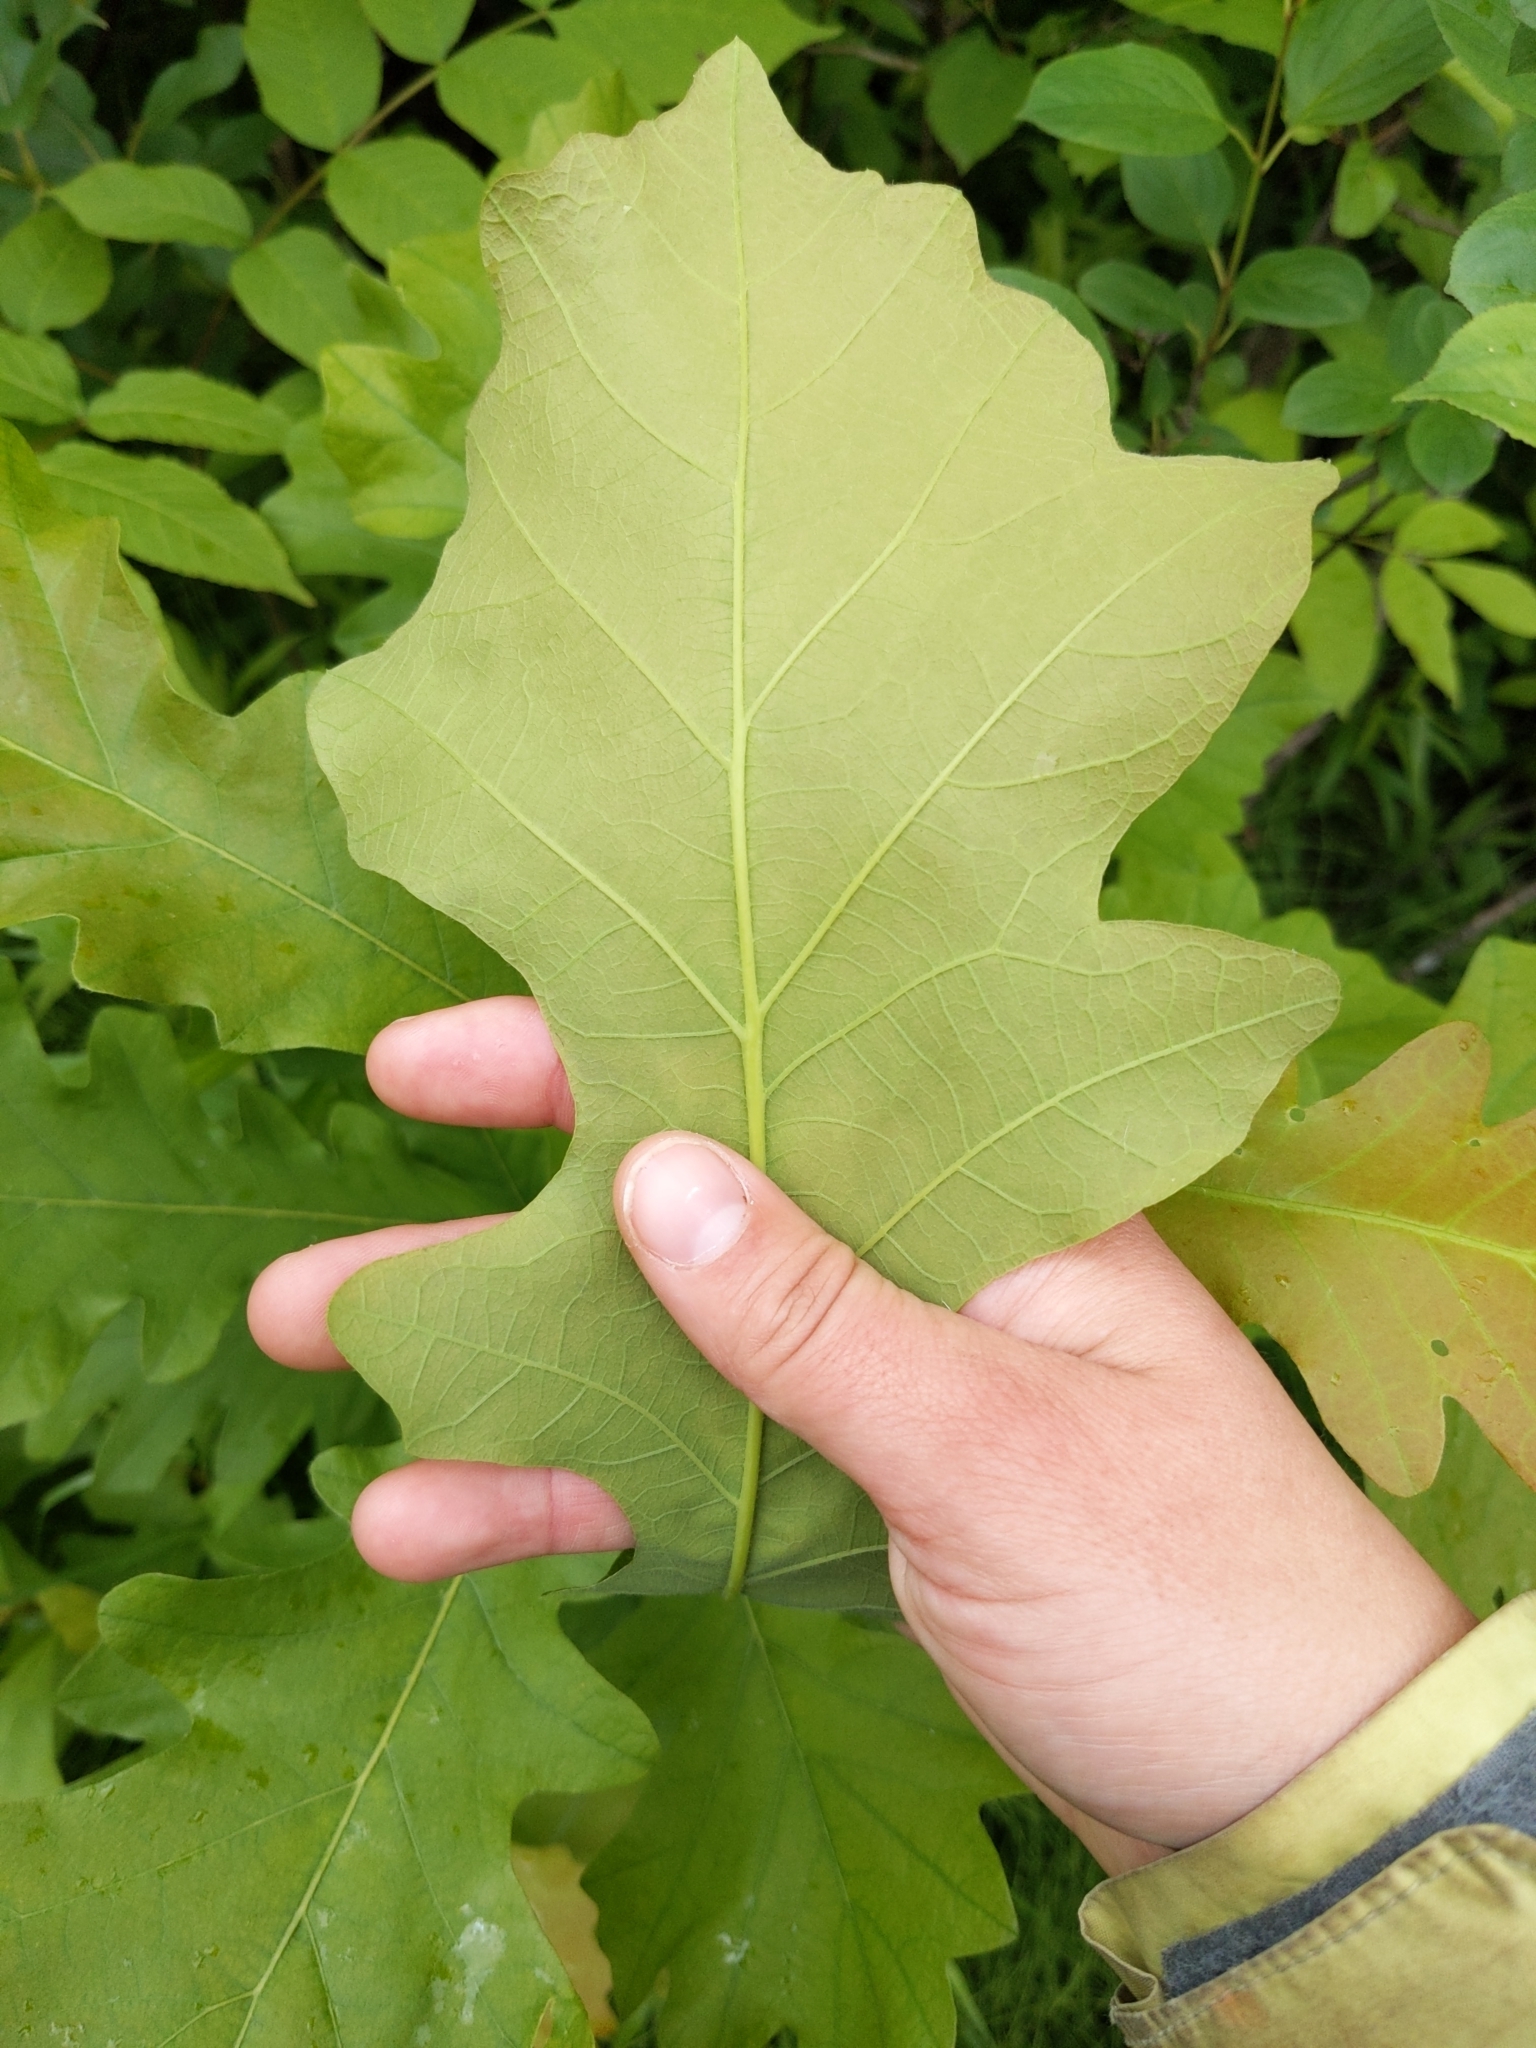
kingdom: Plantae
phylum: Tracheophyta
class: Magnoliopsida
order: Fagales
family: Fagaceae
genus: Quercus
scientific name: Quercus macrocarpa
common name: Bur oak
